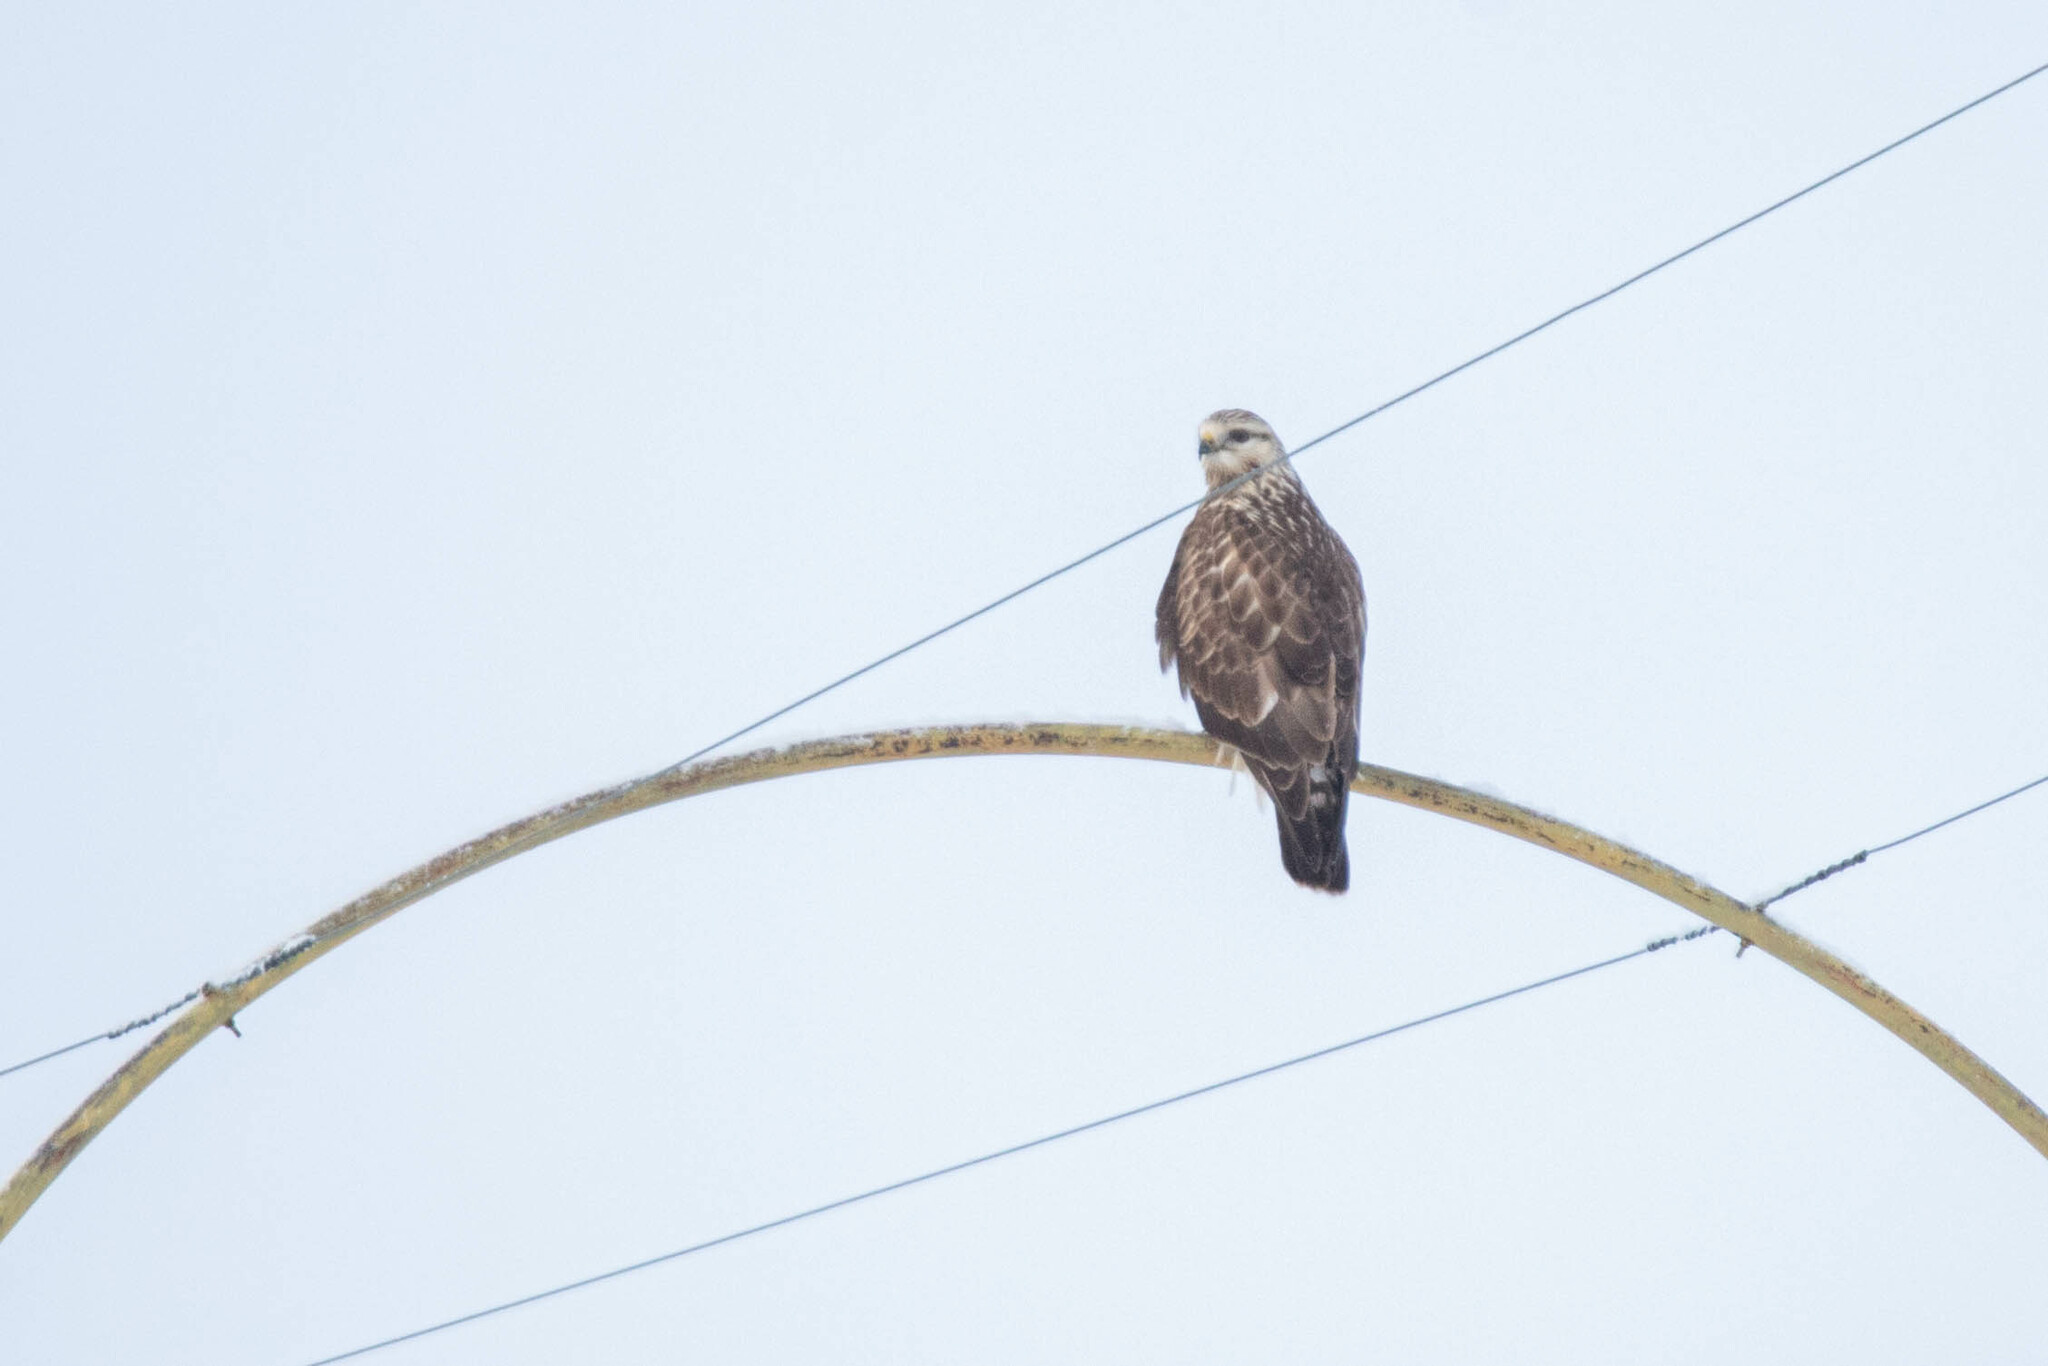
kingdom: Animalia
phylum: Chordata
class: Aves
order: Accipitriformes
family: Accipitridae
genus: Buteo
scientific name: Buteo lagopus
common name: Rough-legged buzzard
